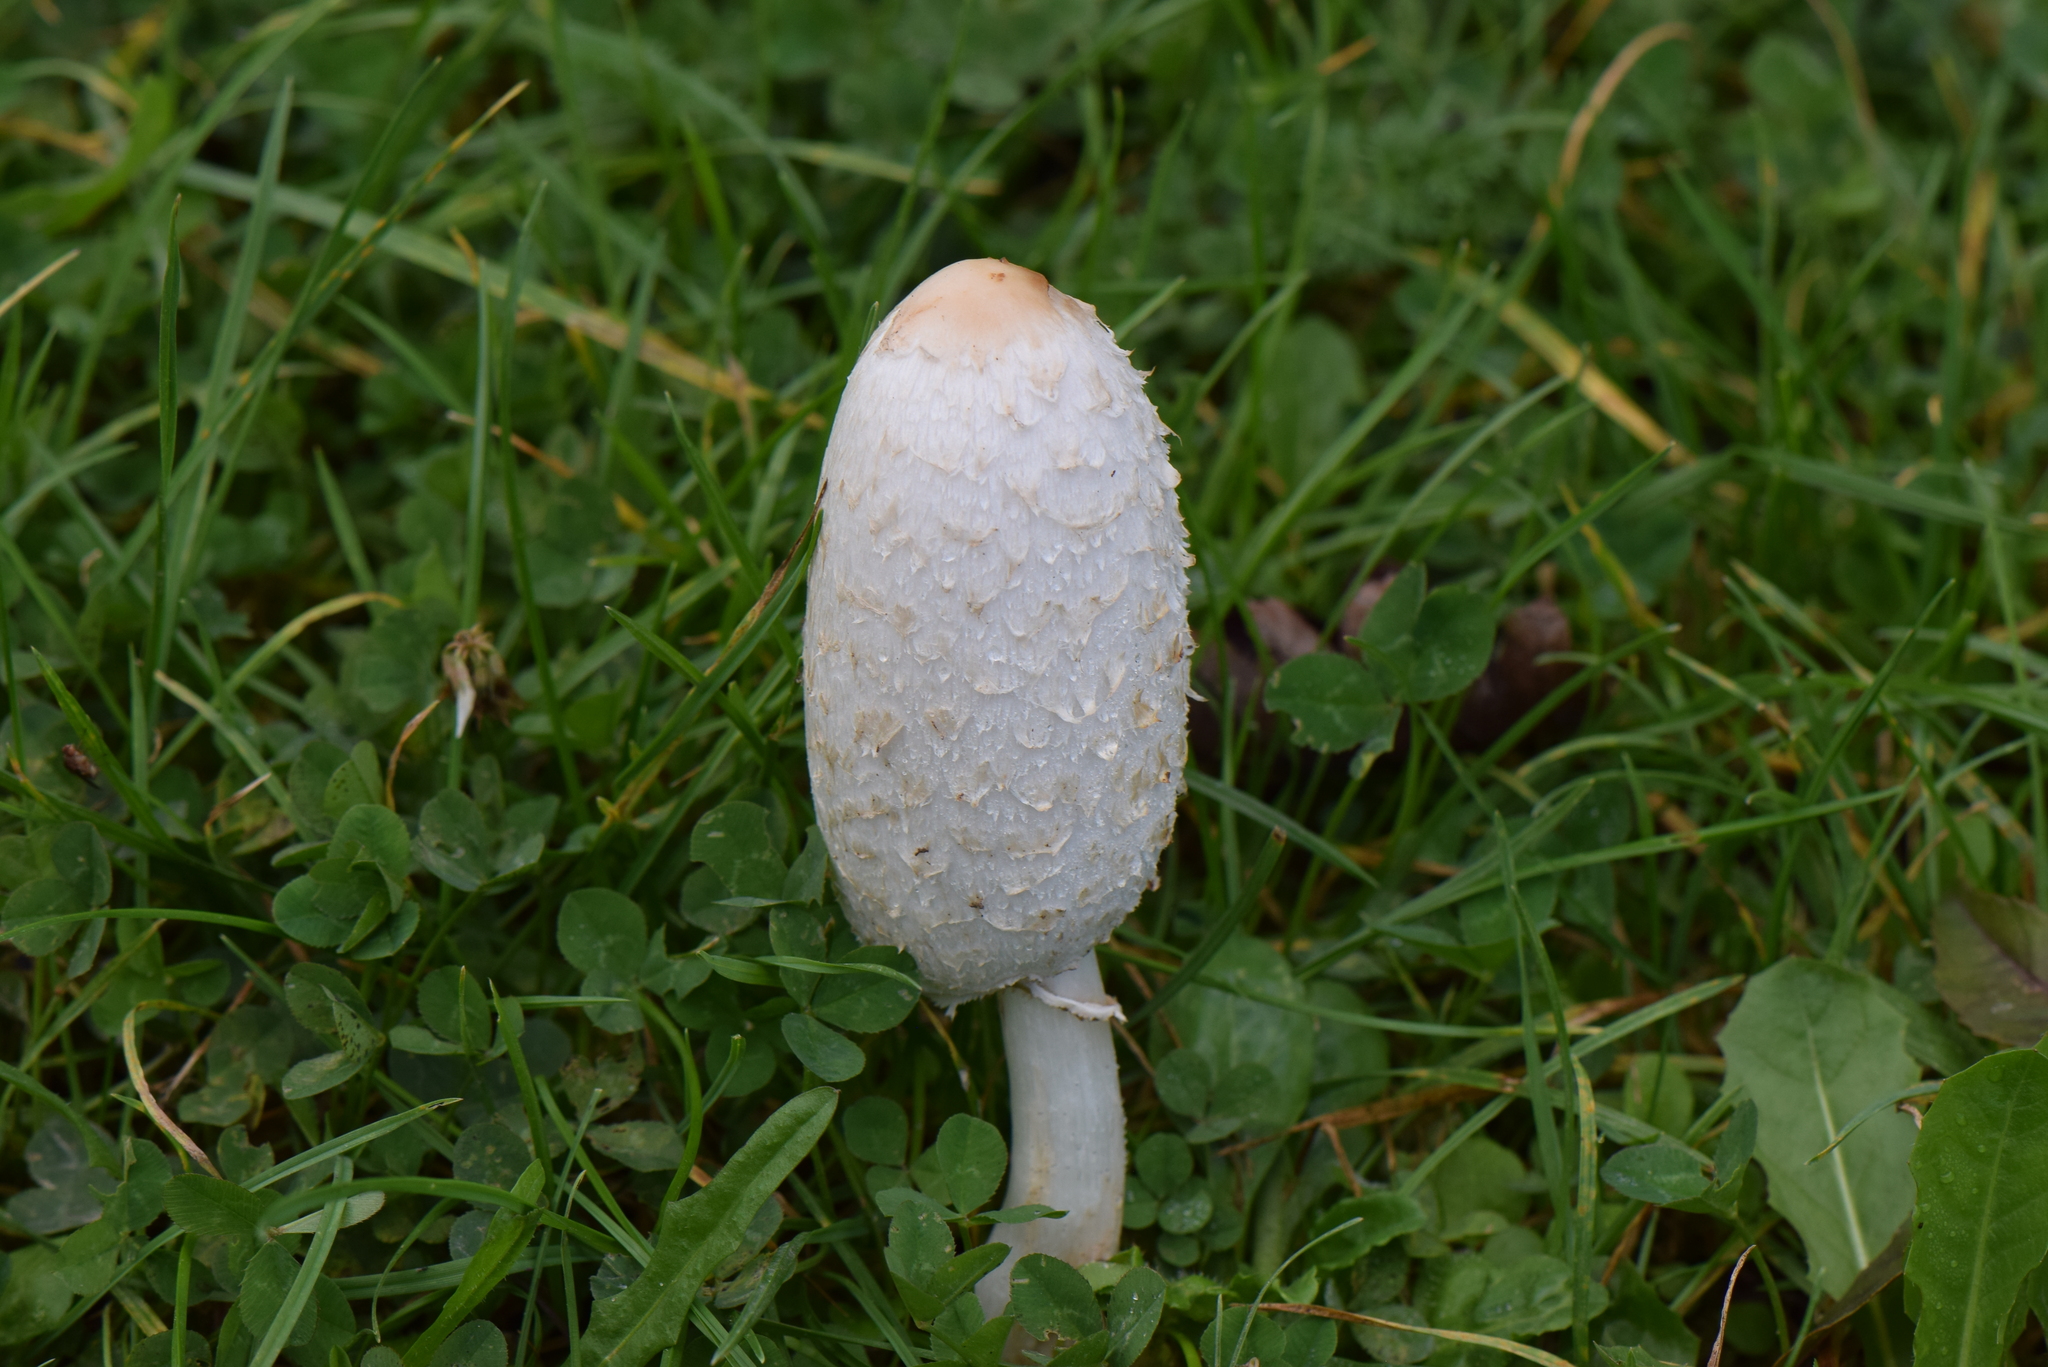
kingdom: Fungi
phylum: Basidiomycota
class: Agaricomycetes
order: Agaricales
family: Agaricaceae
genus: Coprinus
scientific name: Coprinus comatus
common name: Lawyer's wig
